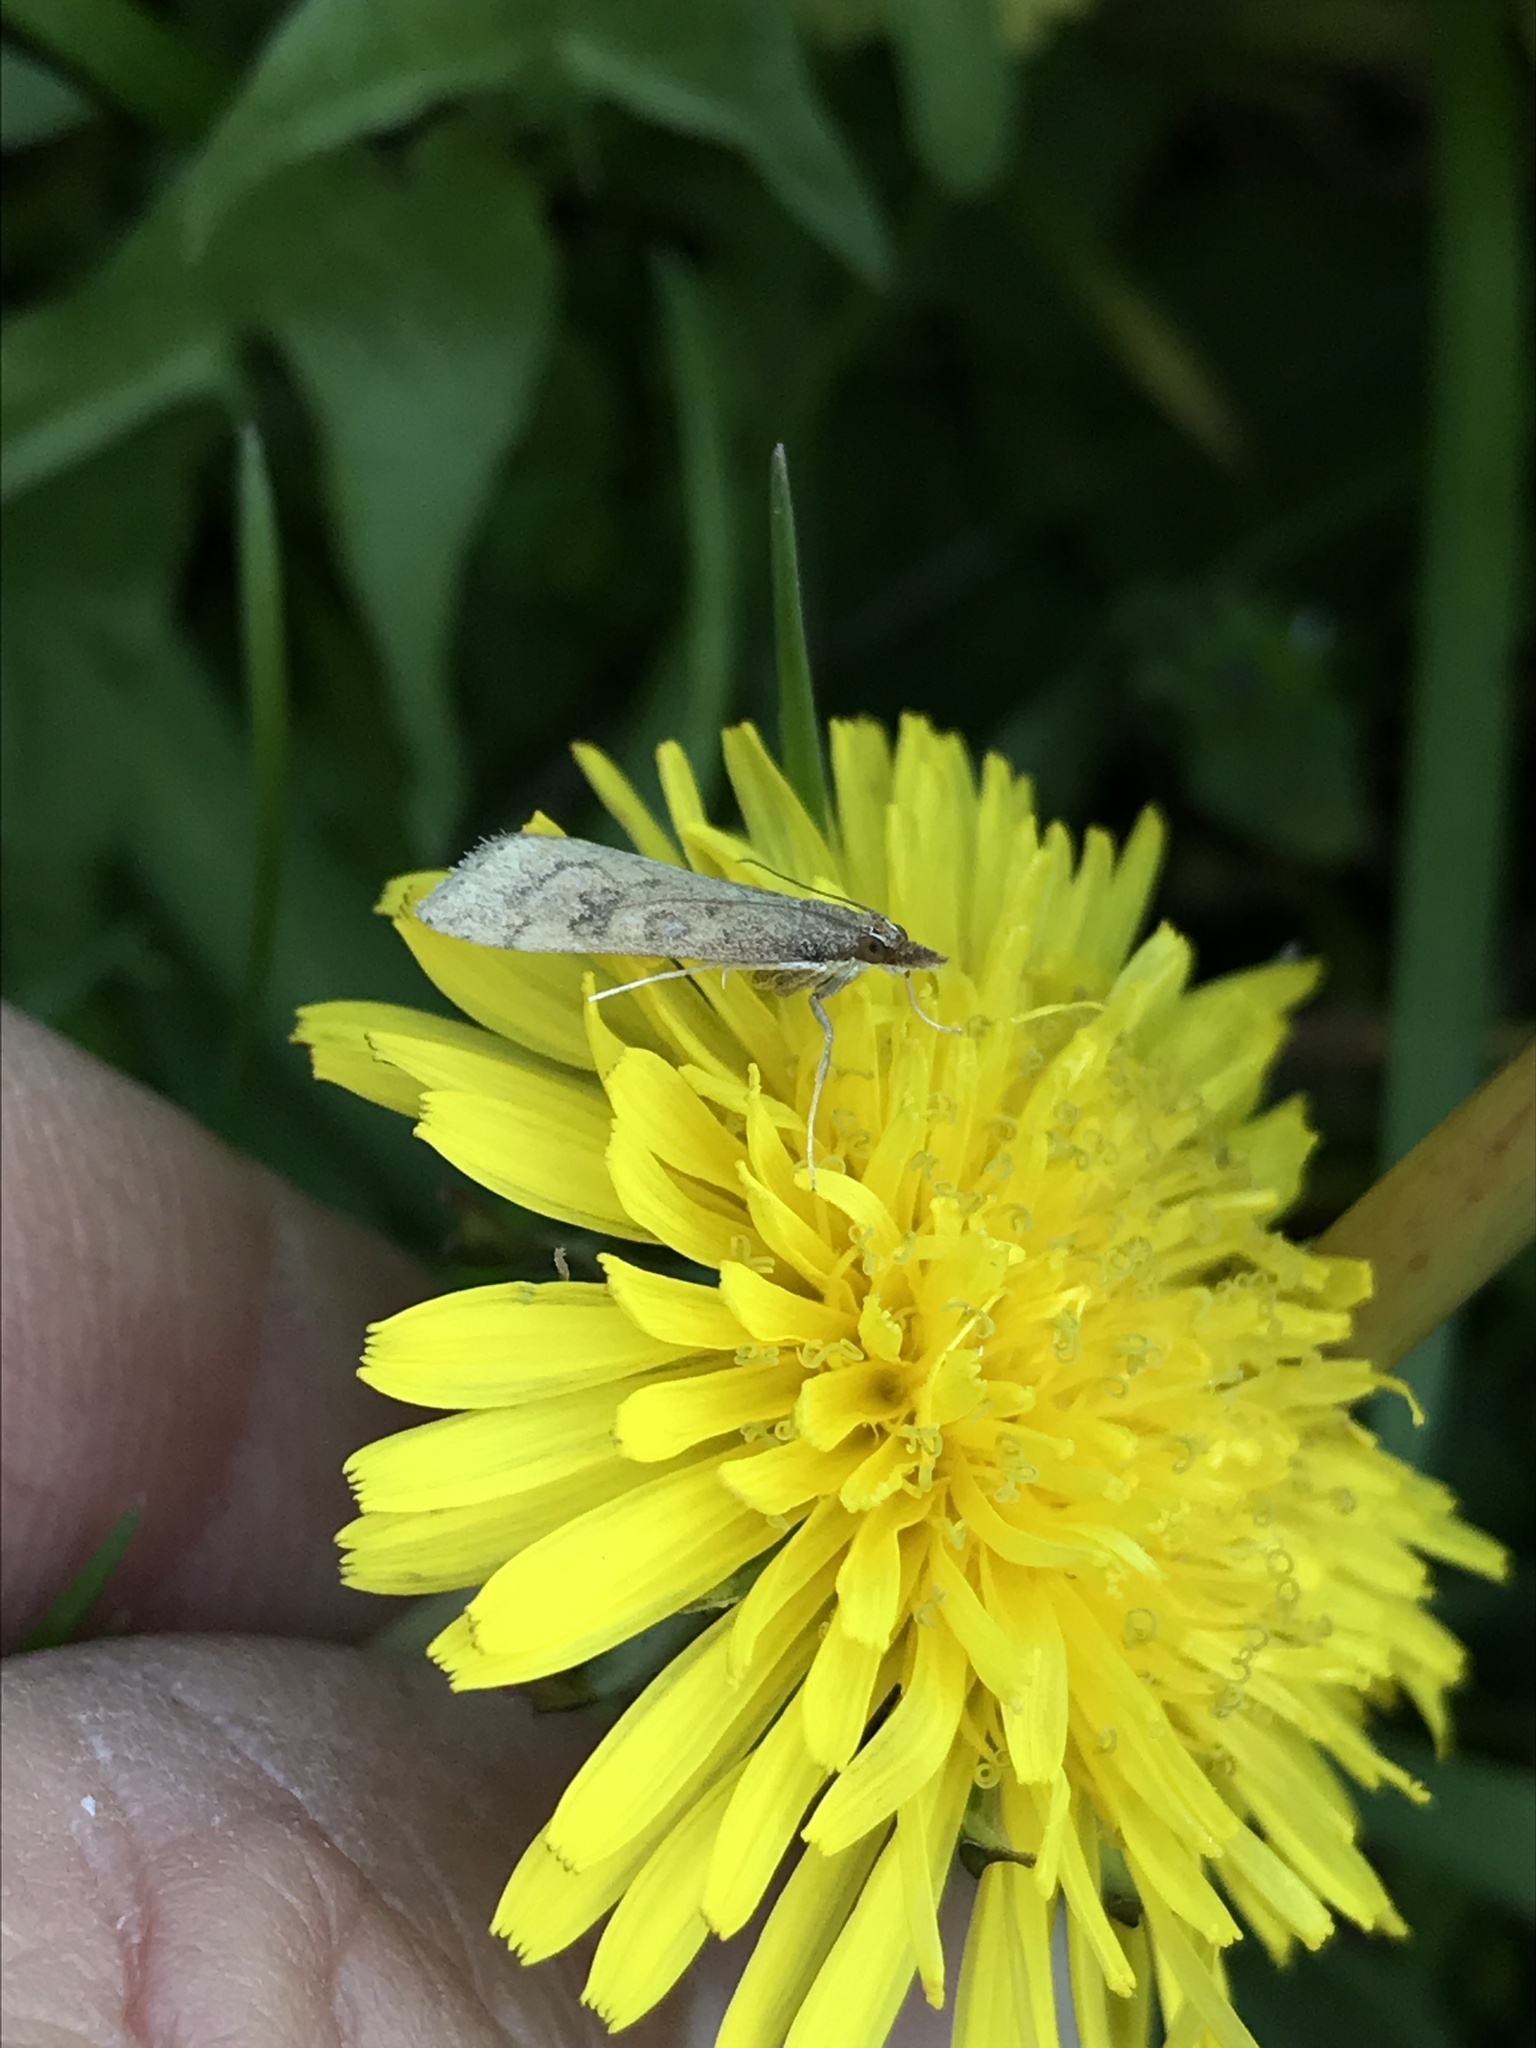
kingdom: Animalia
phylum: Arthropoda
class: Insecta
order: Lepidoptera
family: Crambidae
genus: Udea
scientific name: Udea rubigalis
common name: Celery leaftier moth
